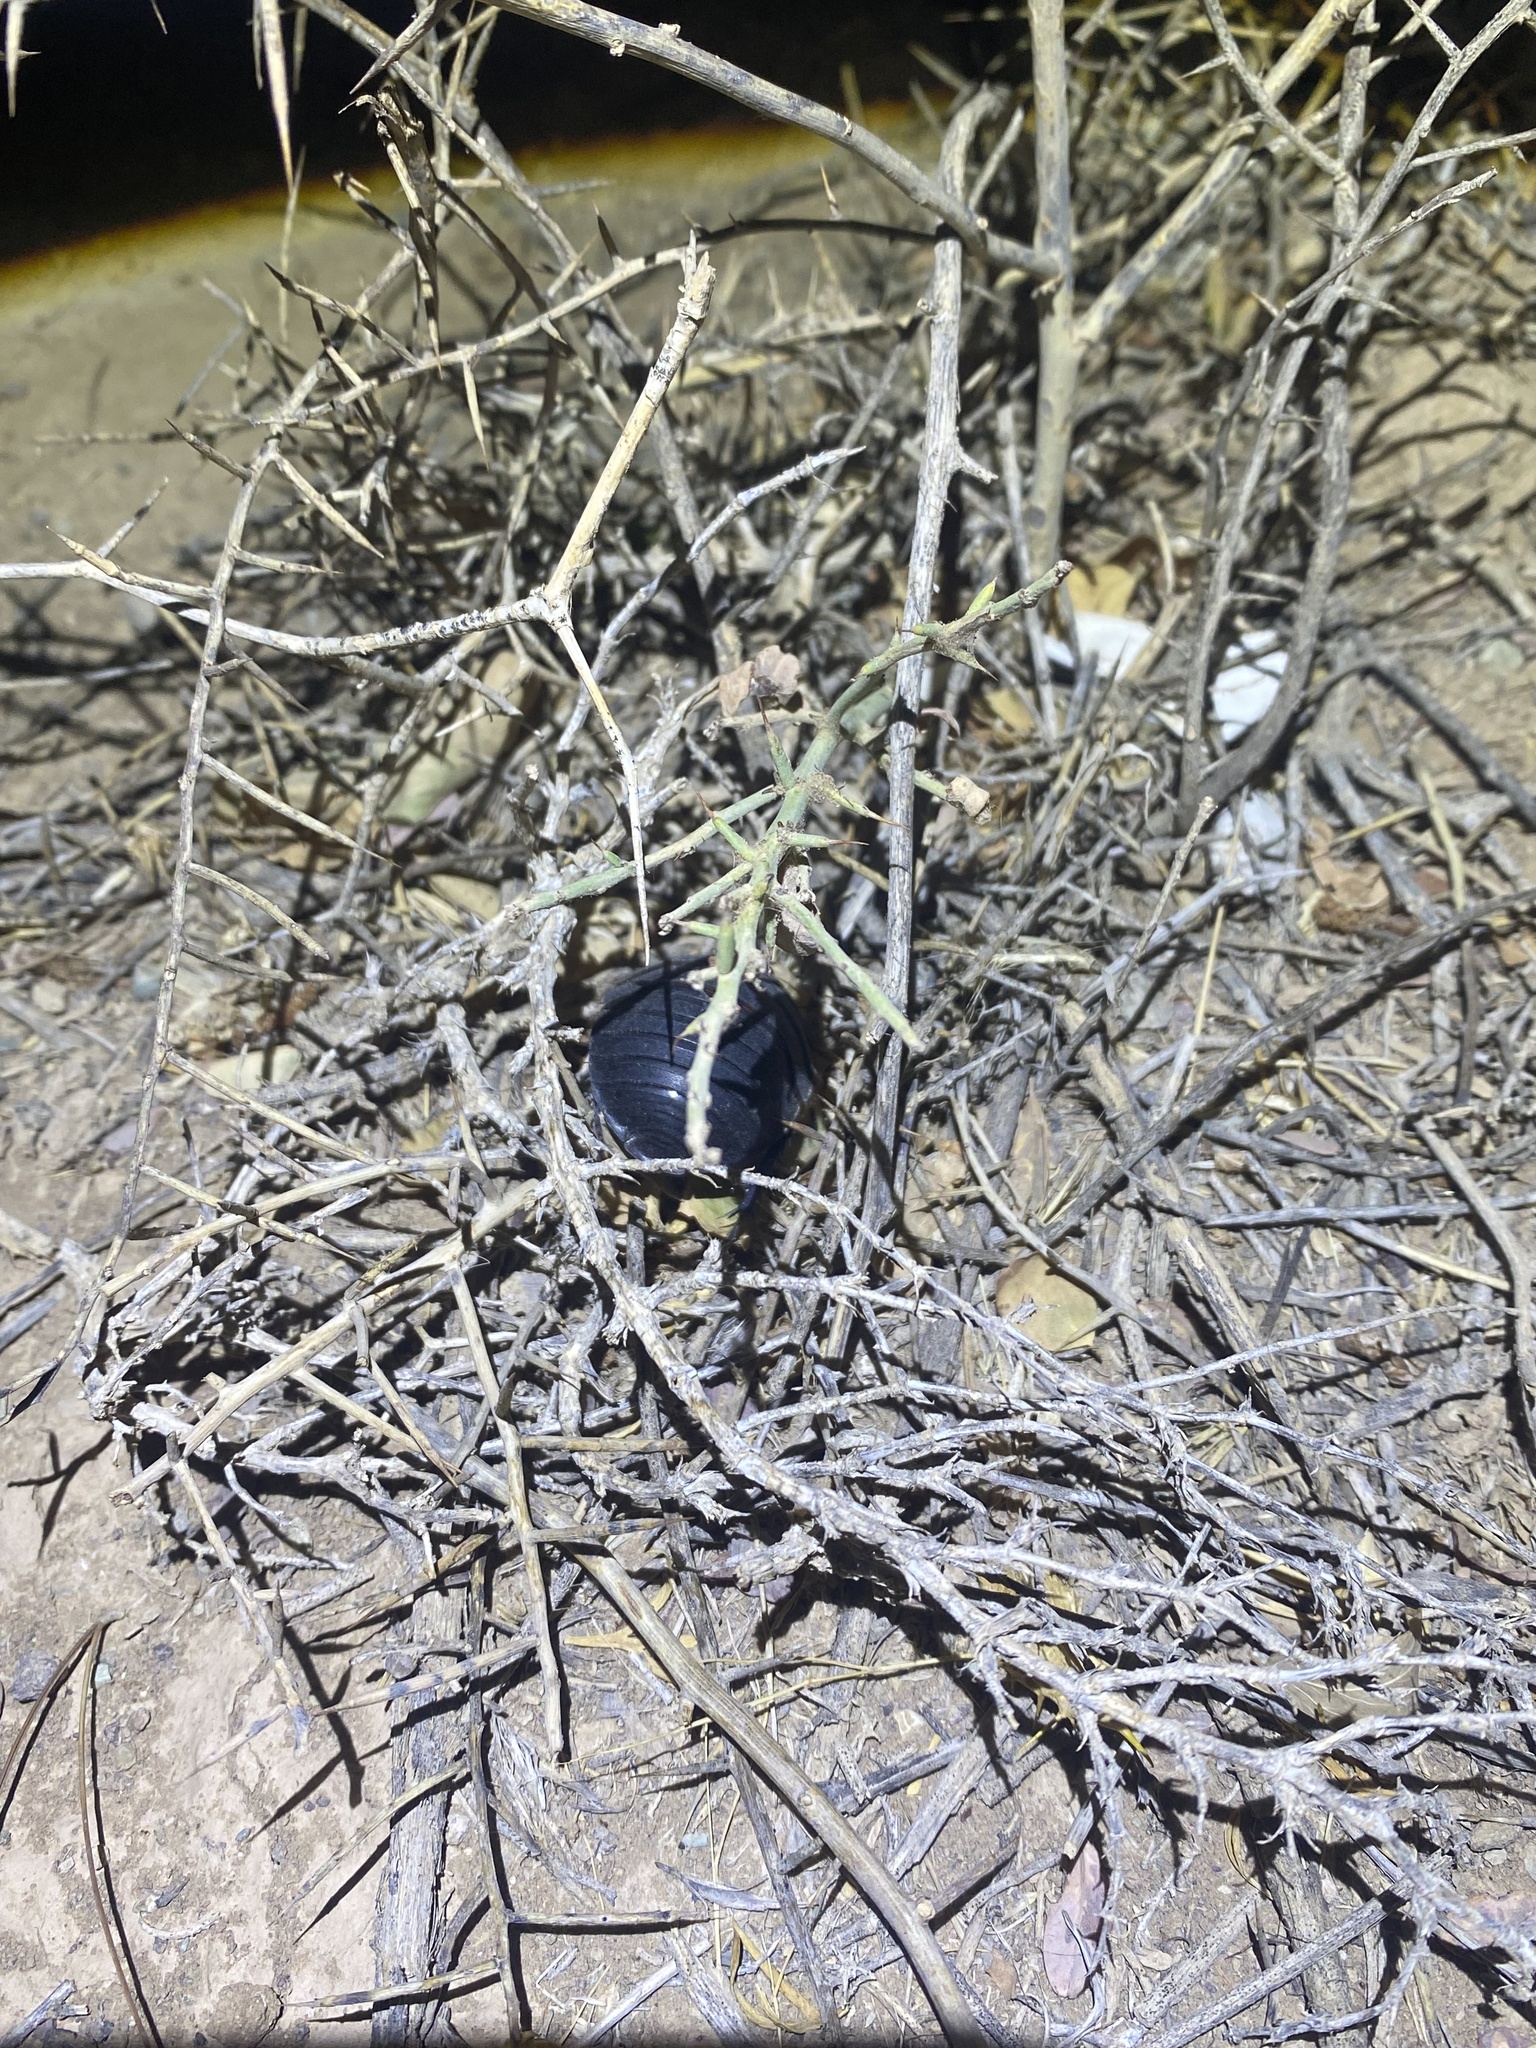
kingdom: Animalia
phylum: Arthropoda
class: Insecta
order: Blattodea
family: Corydiidae
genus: Polyphaga
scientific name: Polyphaga aegyptiaca
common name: Egyptian cockroach
